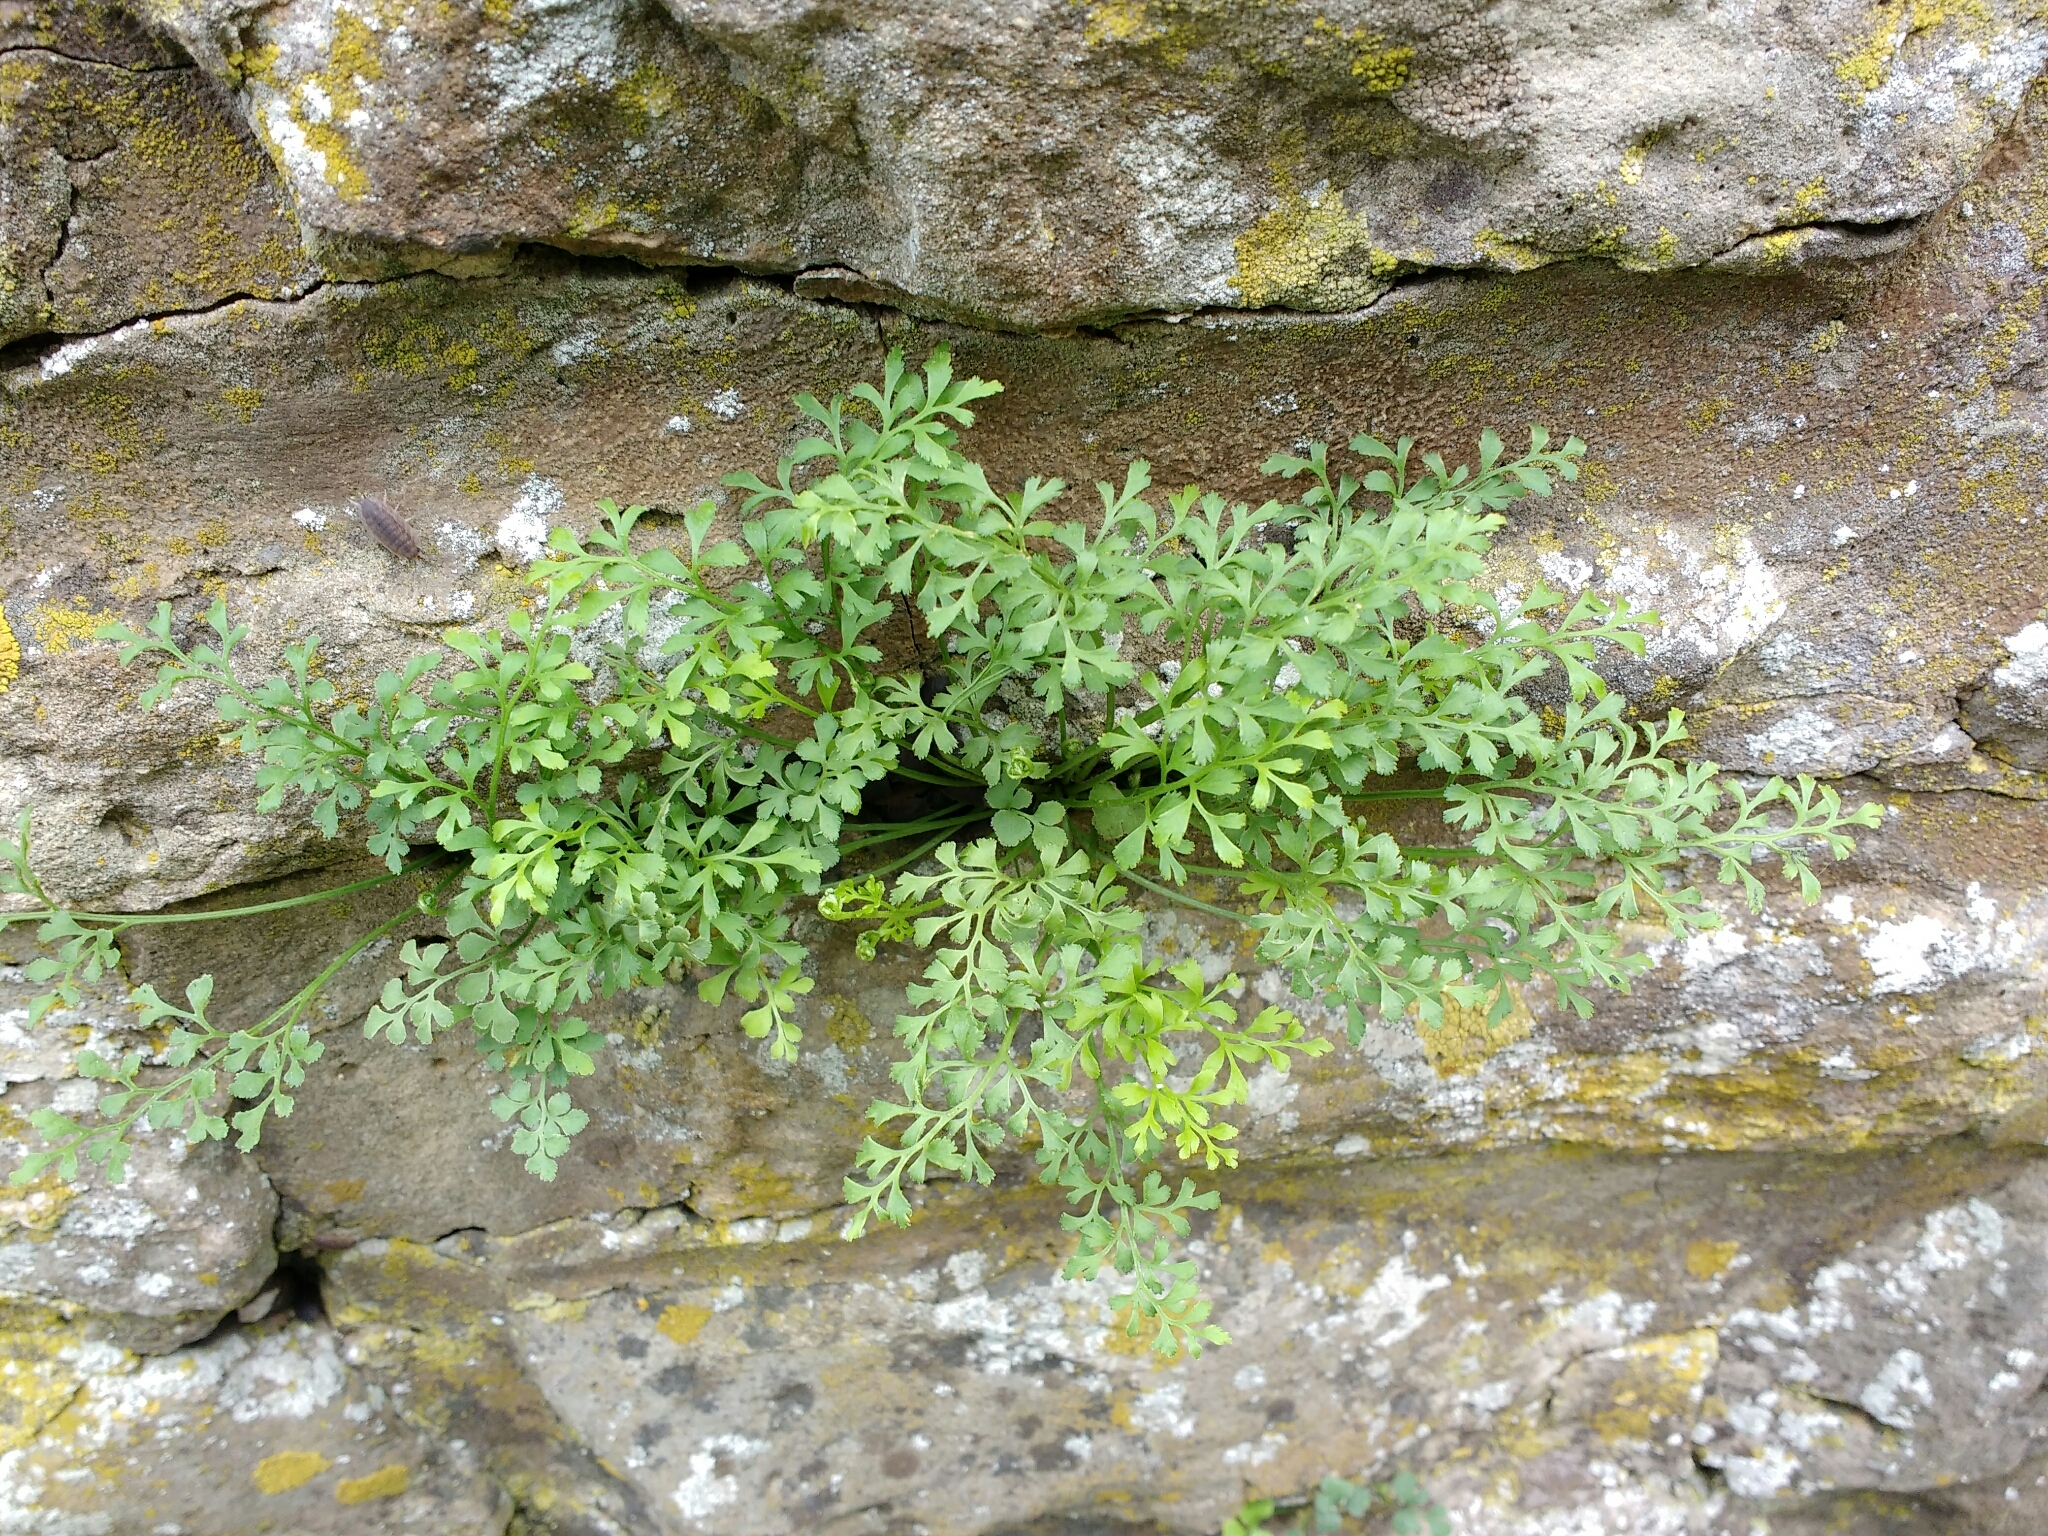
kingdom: Plantae
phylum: Tracheophyta
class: Polypodiopsida
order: Polypodiales
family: Aspleniaceae
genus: Asplenium
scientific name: Asplenium ruta-muraria
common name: Wall-rue
